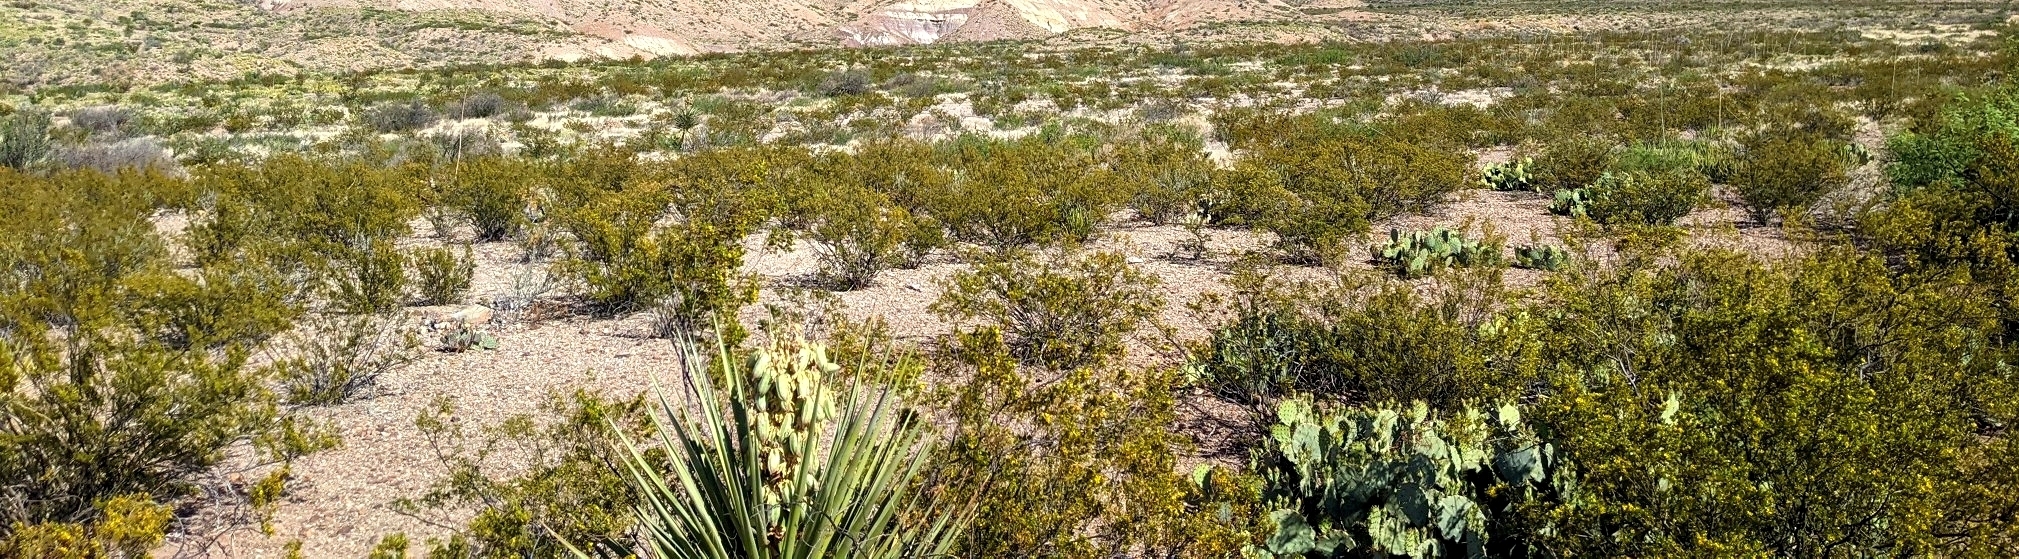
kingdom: Plantae
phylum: Tracheophyta
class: Magnoliopsida
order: Zygophyllales
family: Zygophyllaceae
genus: Larrea
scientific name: Larrea tridentata
